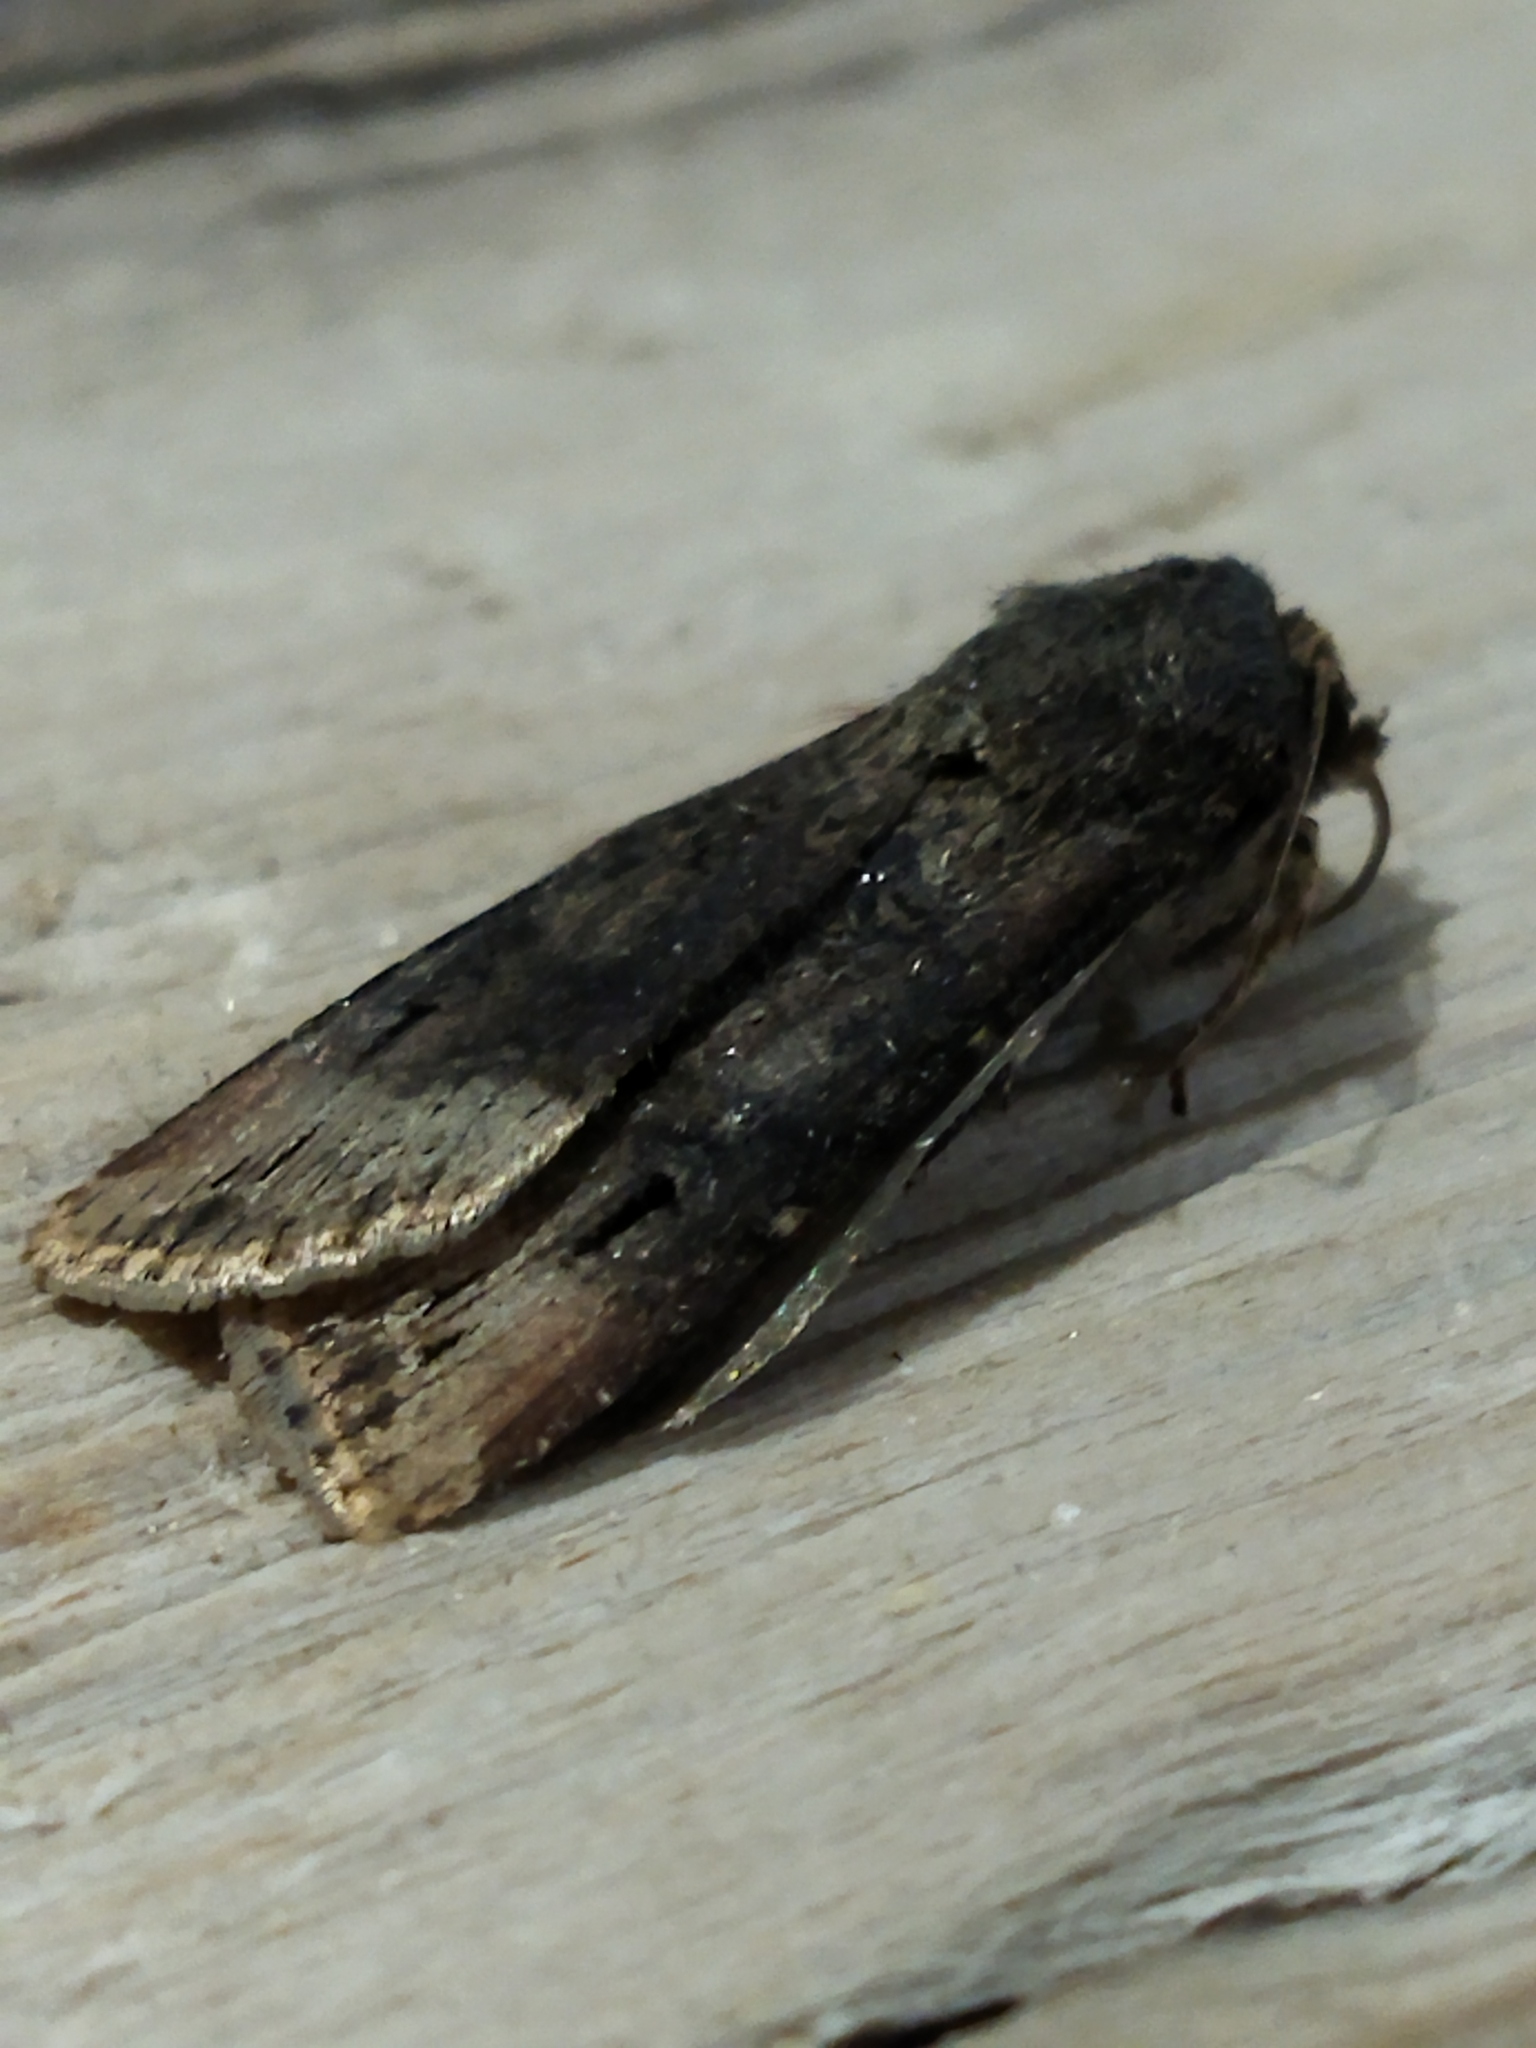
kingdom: Animalia
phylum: Arthropoda
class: Insecta
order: Lepidoptera
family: Noctuidae
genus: Agrotis
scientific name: Agrotis ipsilon
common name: Dark sword-grass
